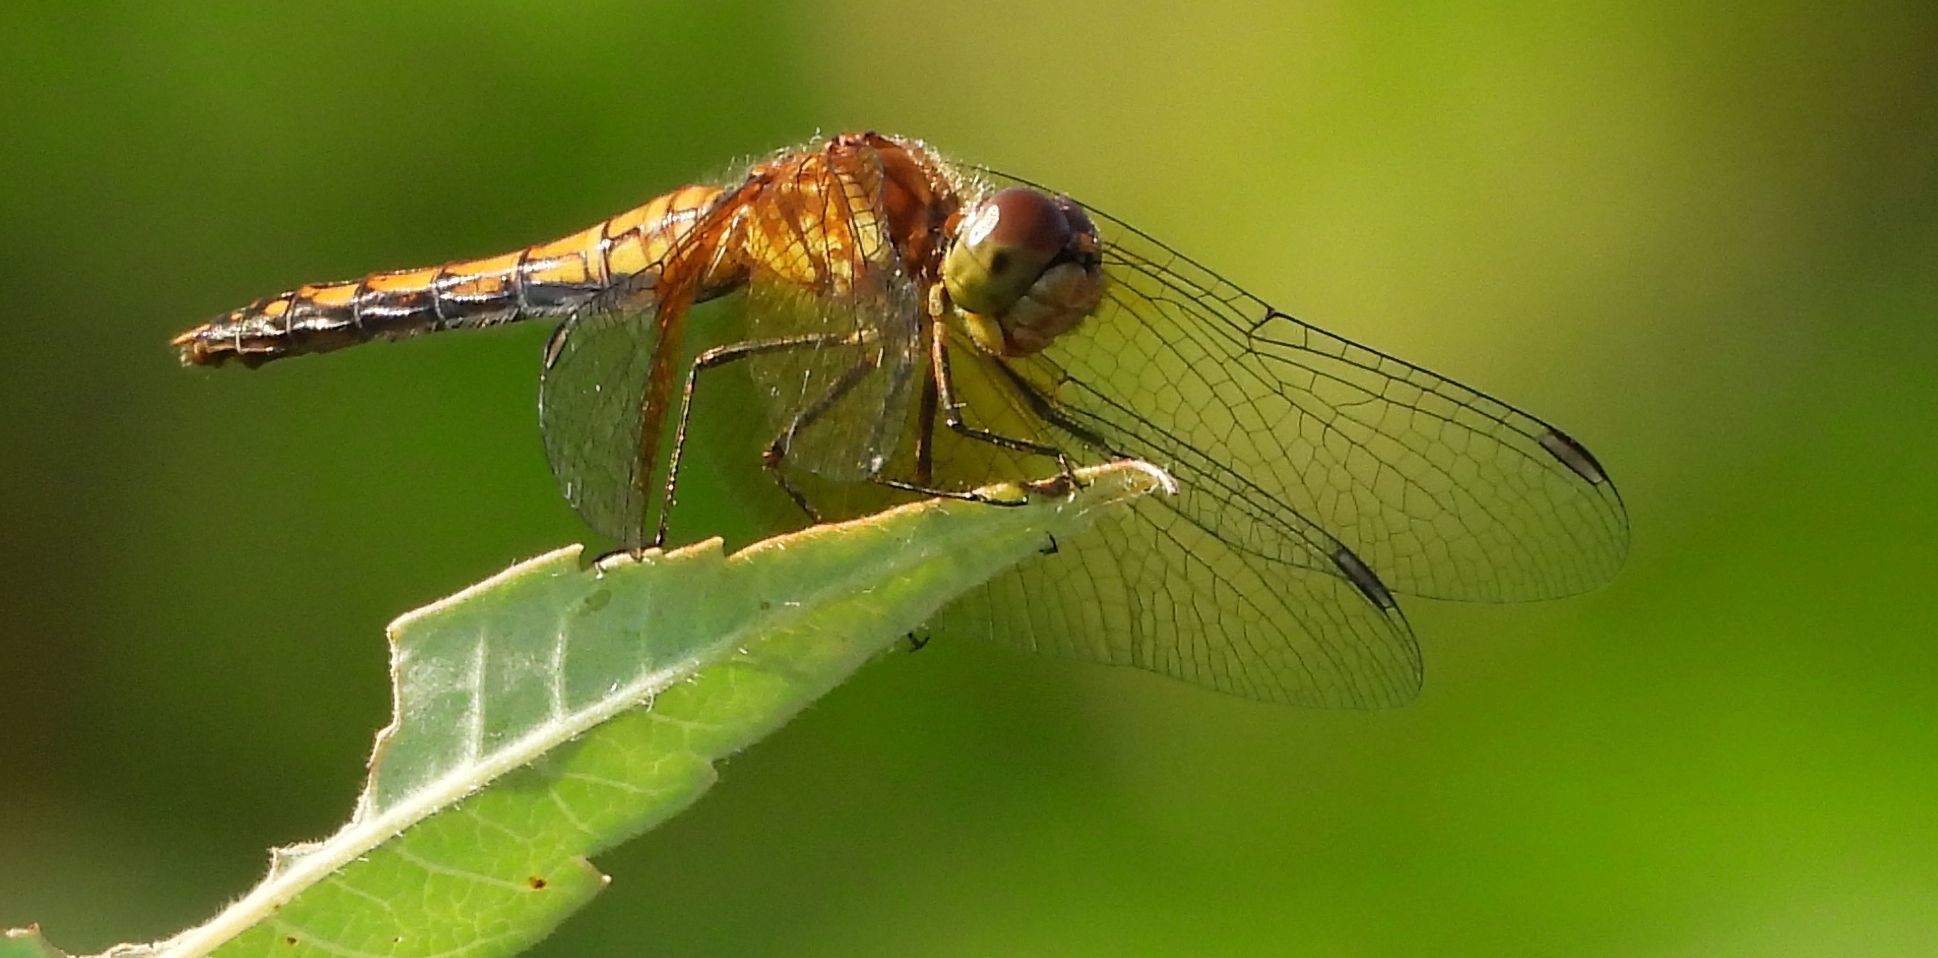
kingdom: Animalia
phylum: Arthropoda
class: Insecta
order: Odonata
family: Libellulidae
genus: Sympetrum
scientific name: Sympetrum semicinctum
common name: Band-winged meadowhawk
